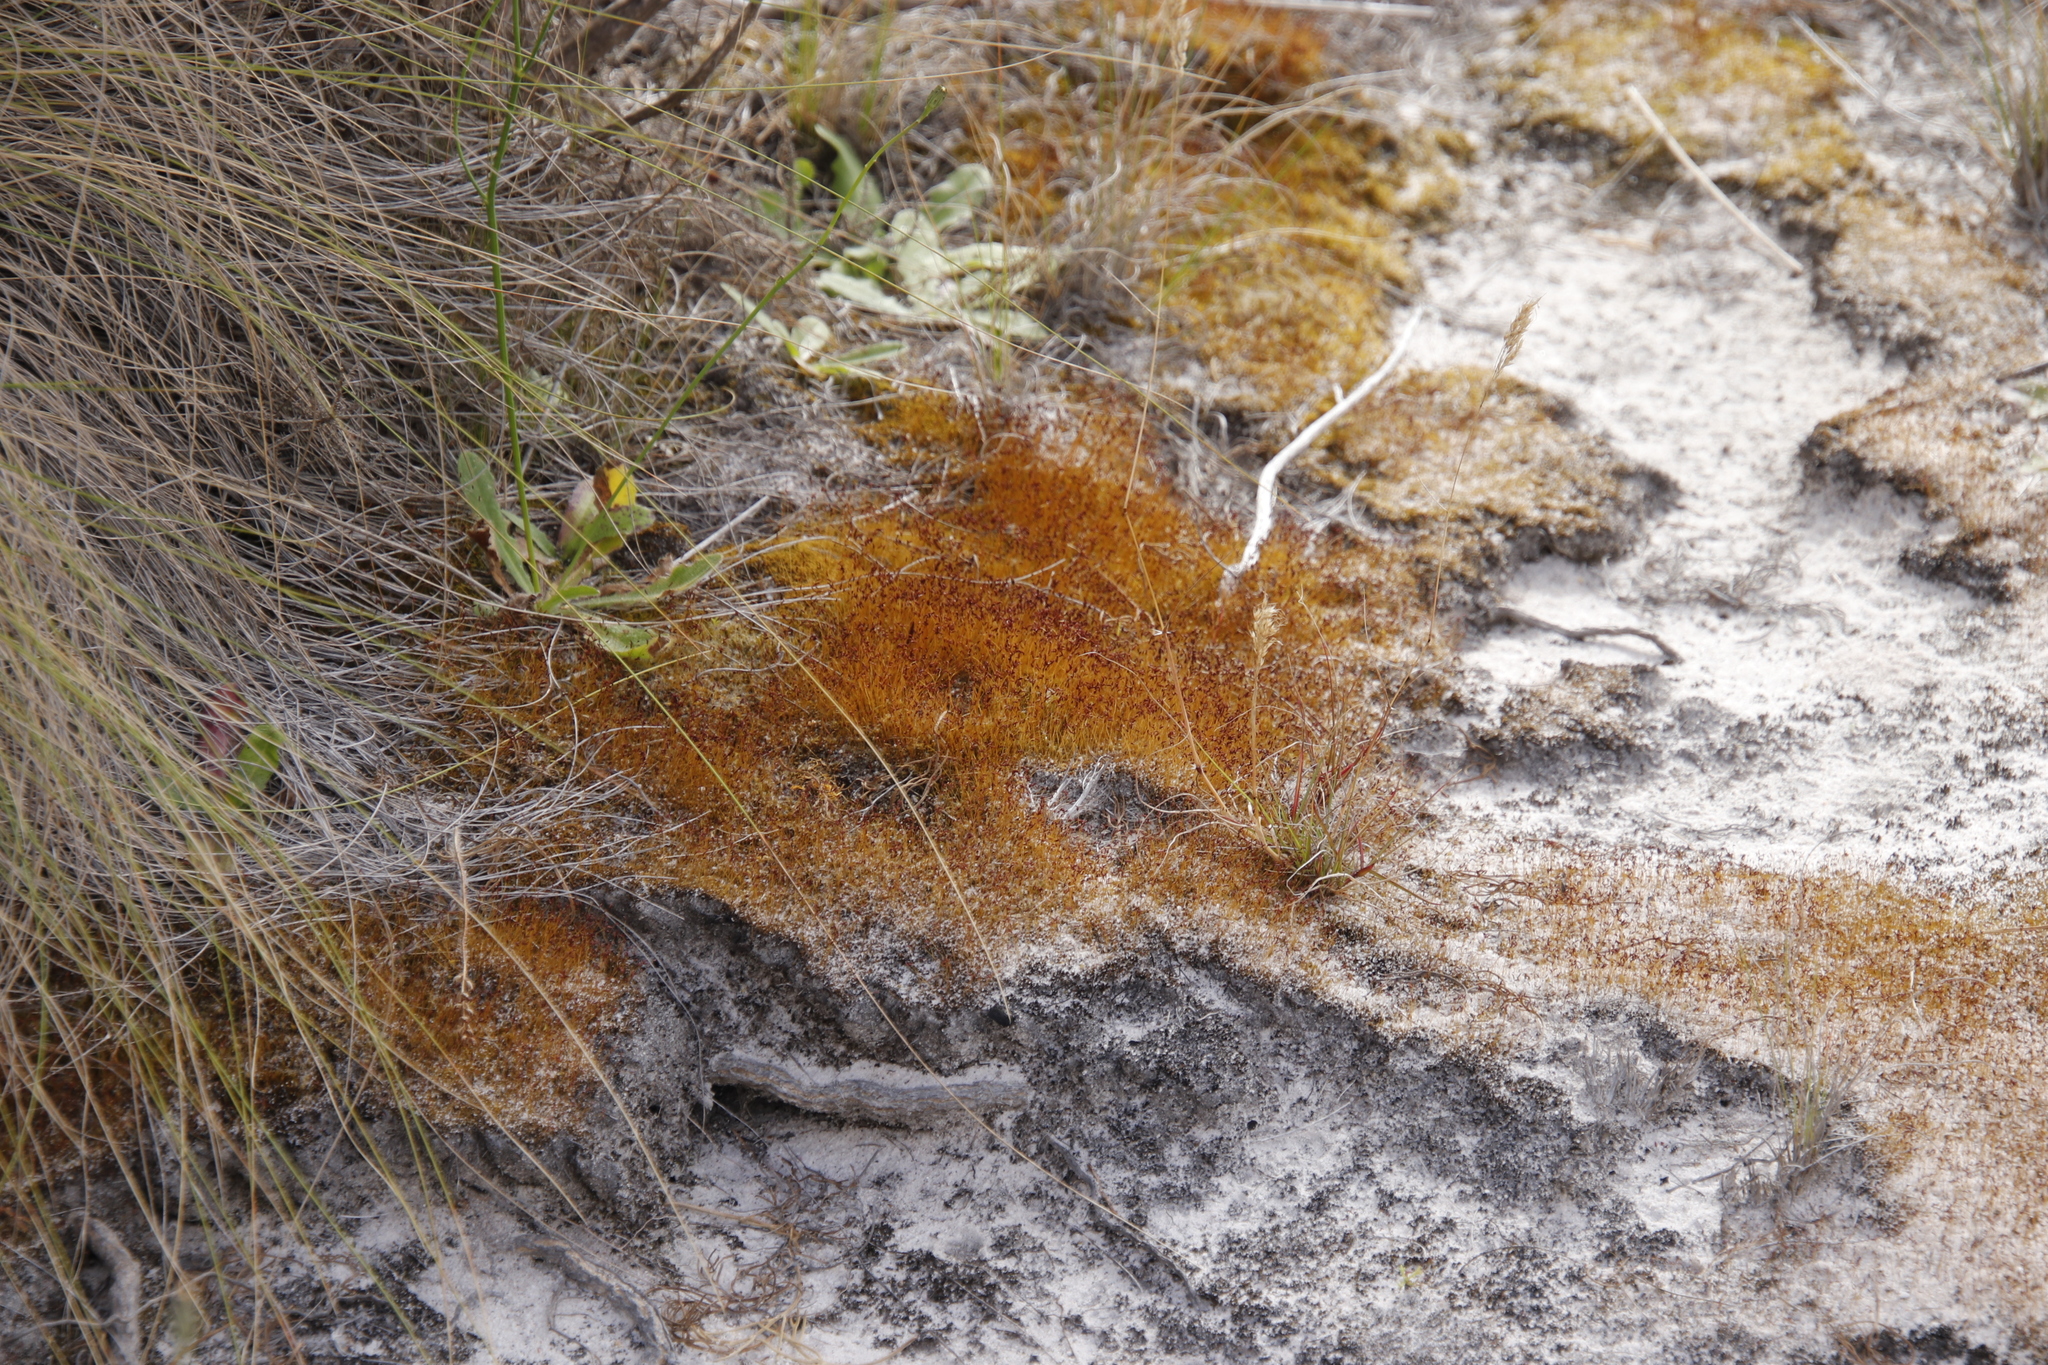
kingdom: Plantae
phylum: Bryophyta
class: Bryopsida
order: Dicranales
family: Ditrichaceae
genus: Ceratodon
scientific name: Ceratodon purpureus
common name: Redshank
